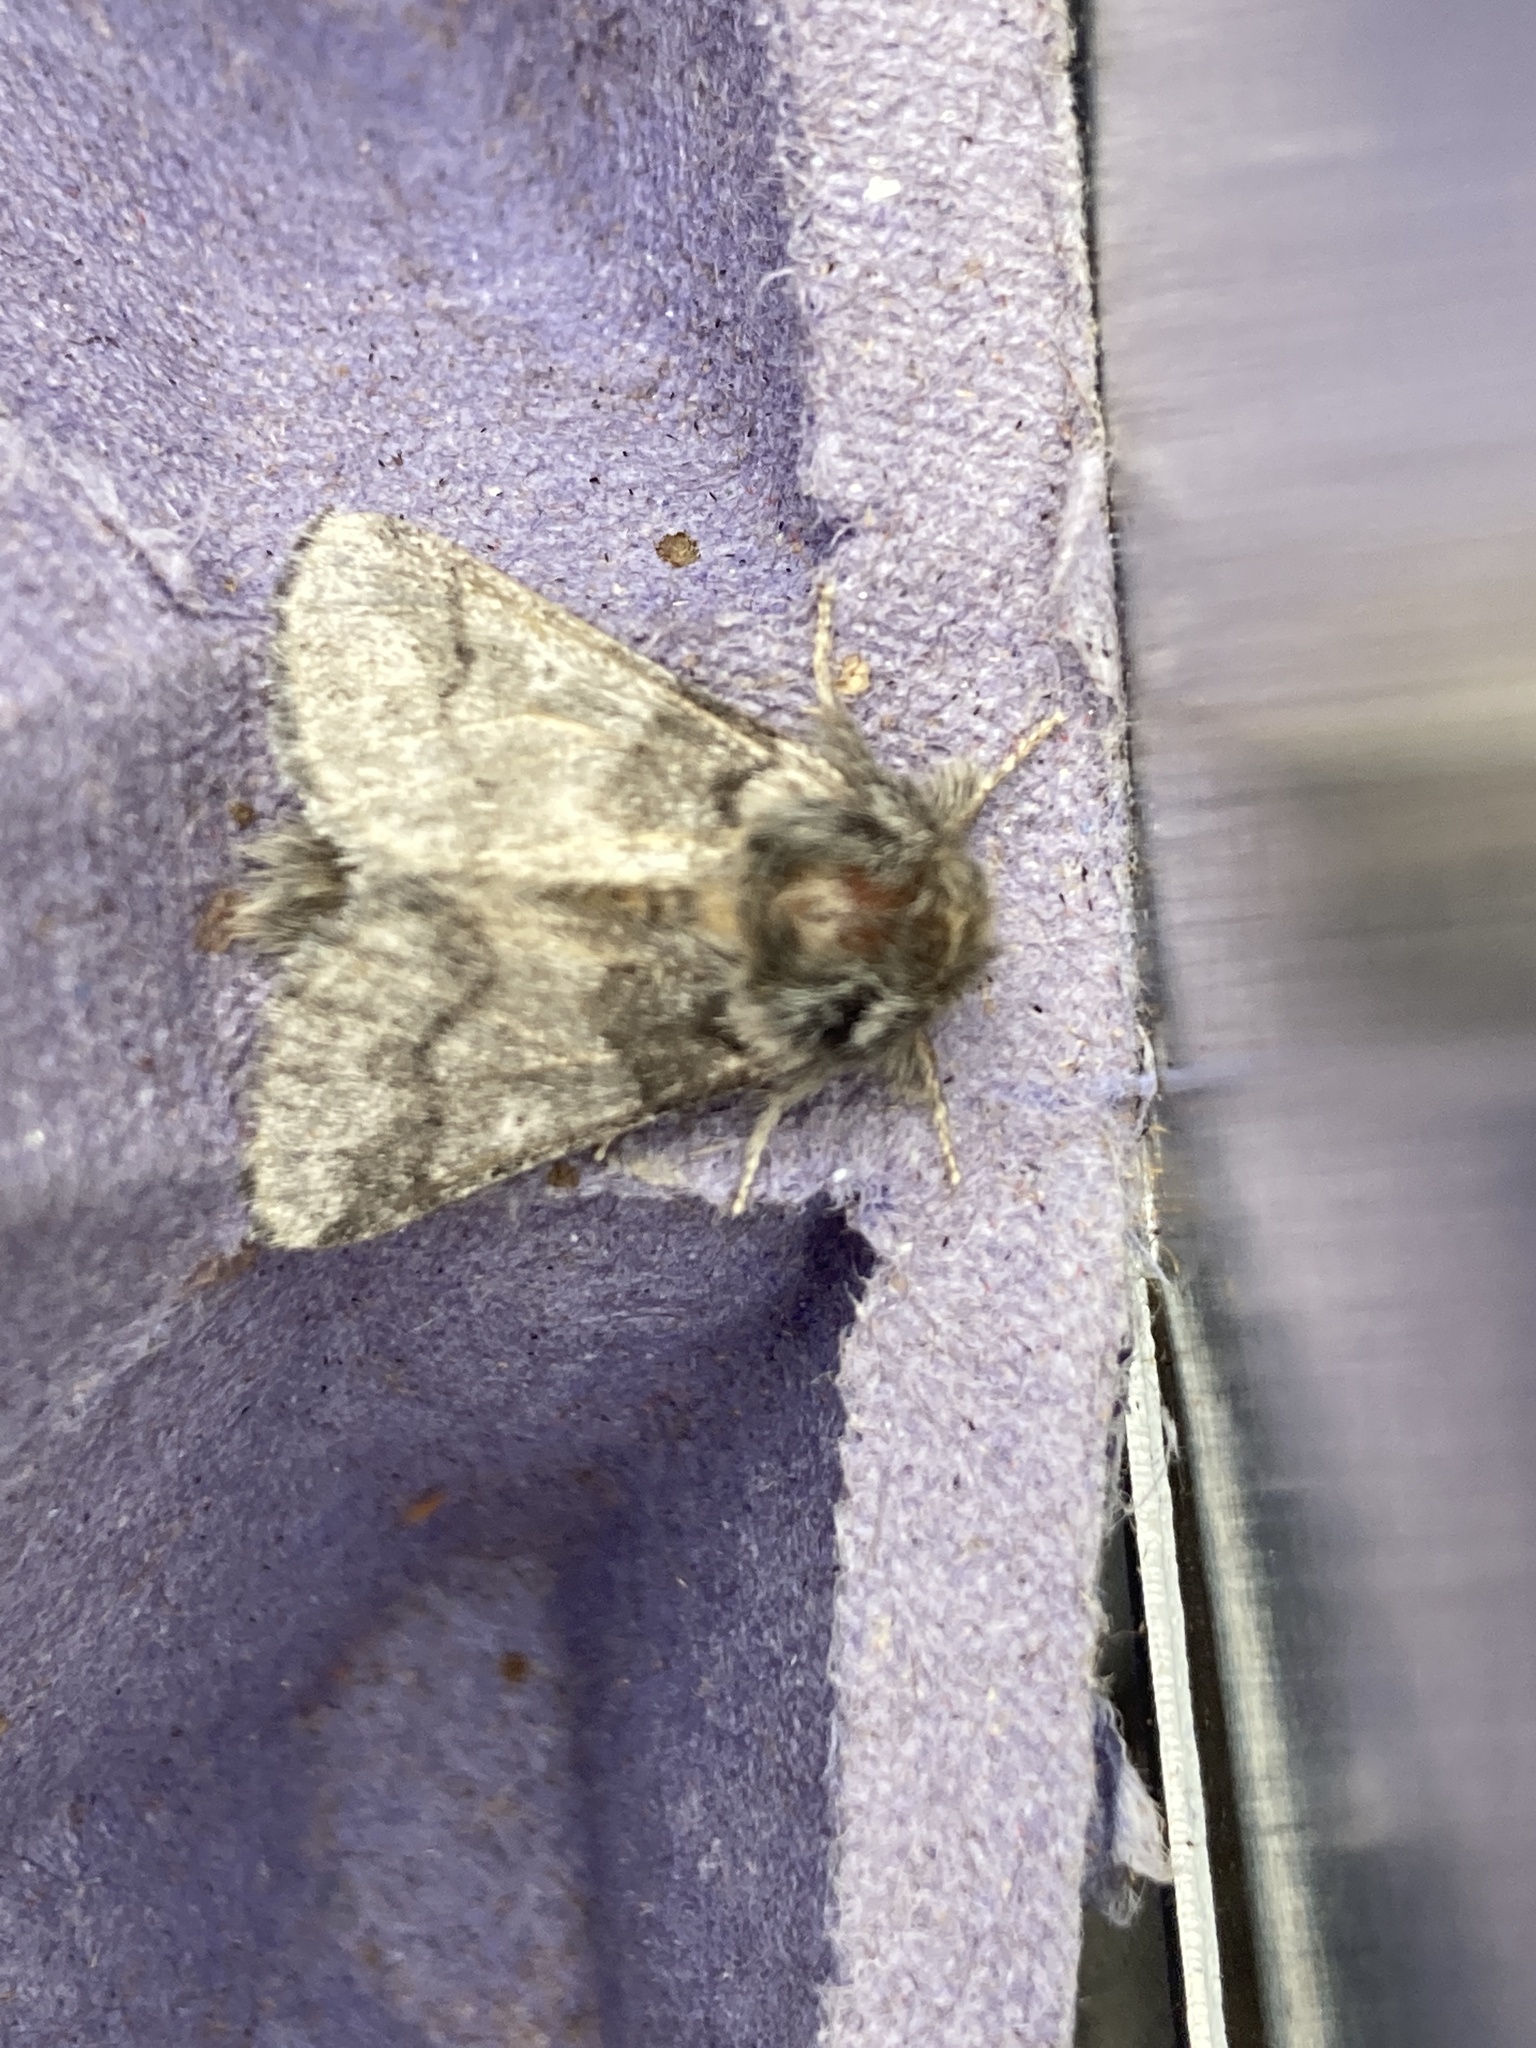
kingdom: Animalia
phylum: Arthropoda
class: Insecta
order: Lepidoptera
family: Notodontidae
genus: Thaumetopoea
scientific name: Thaumetopoea processionea
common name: Oak processionea
